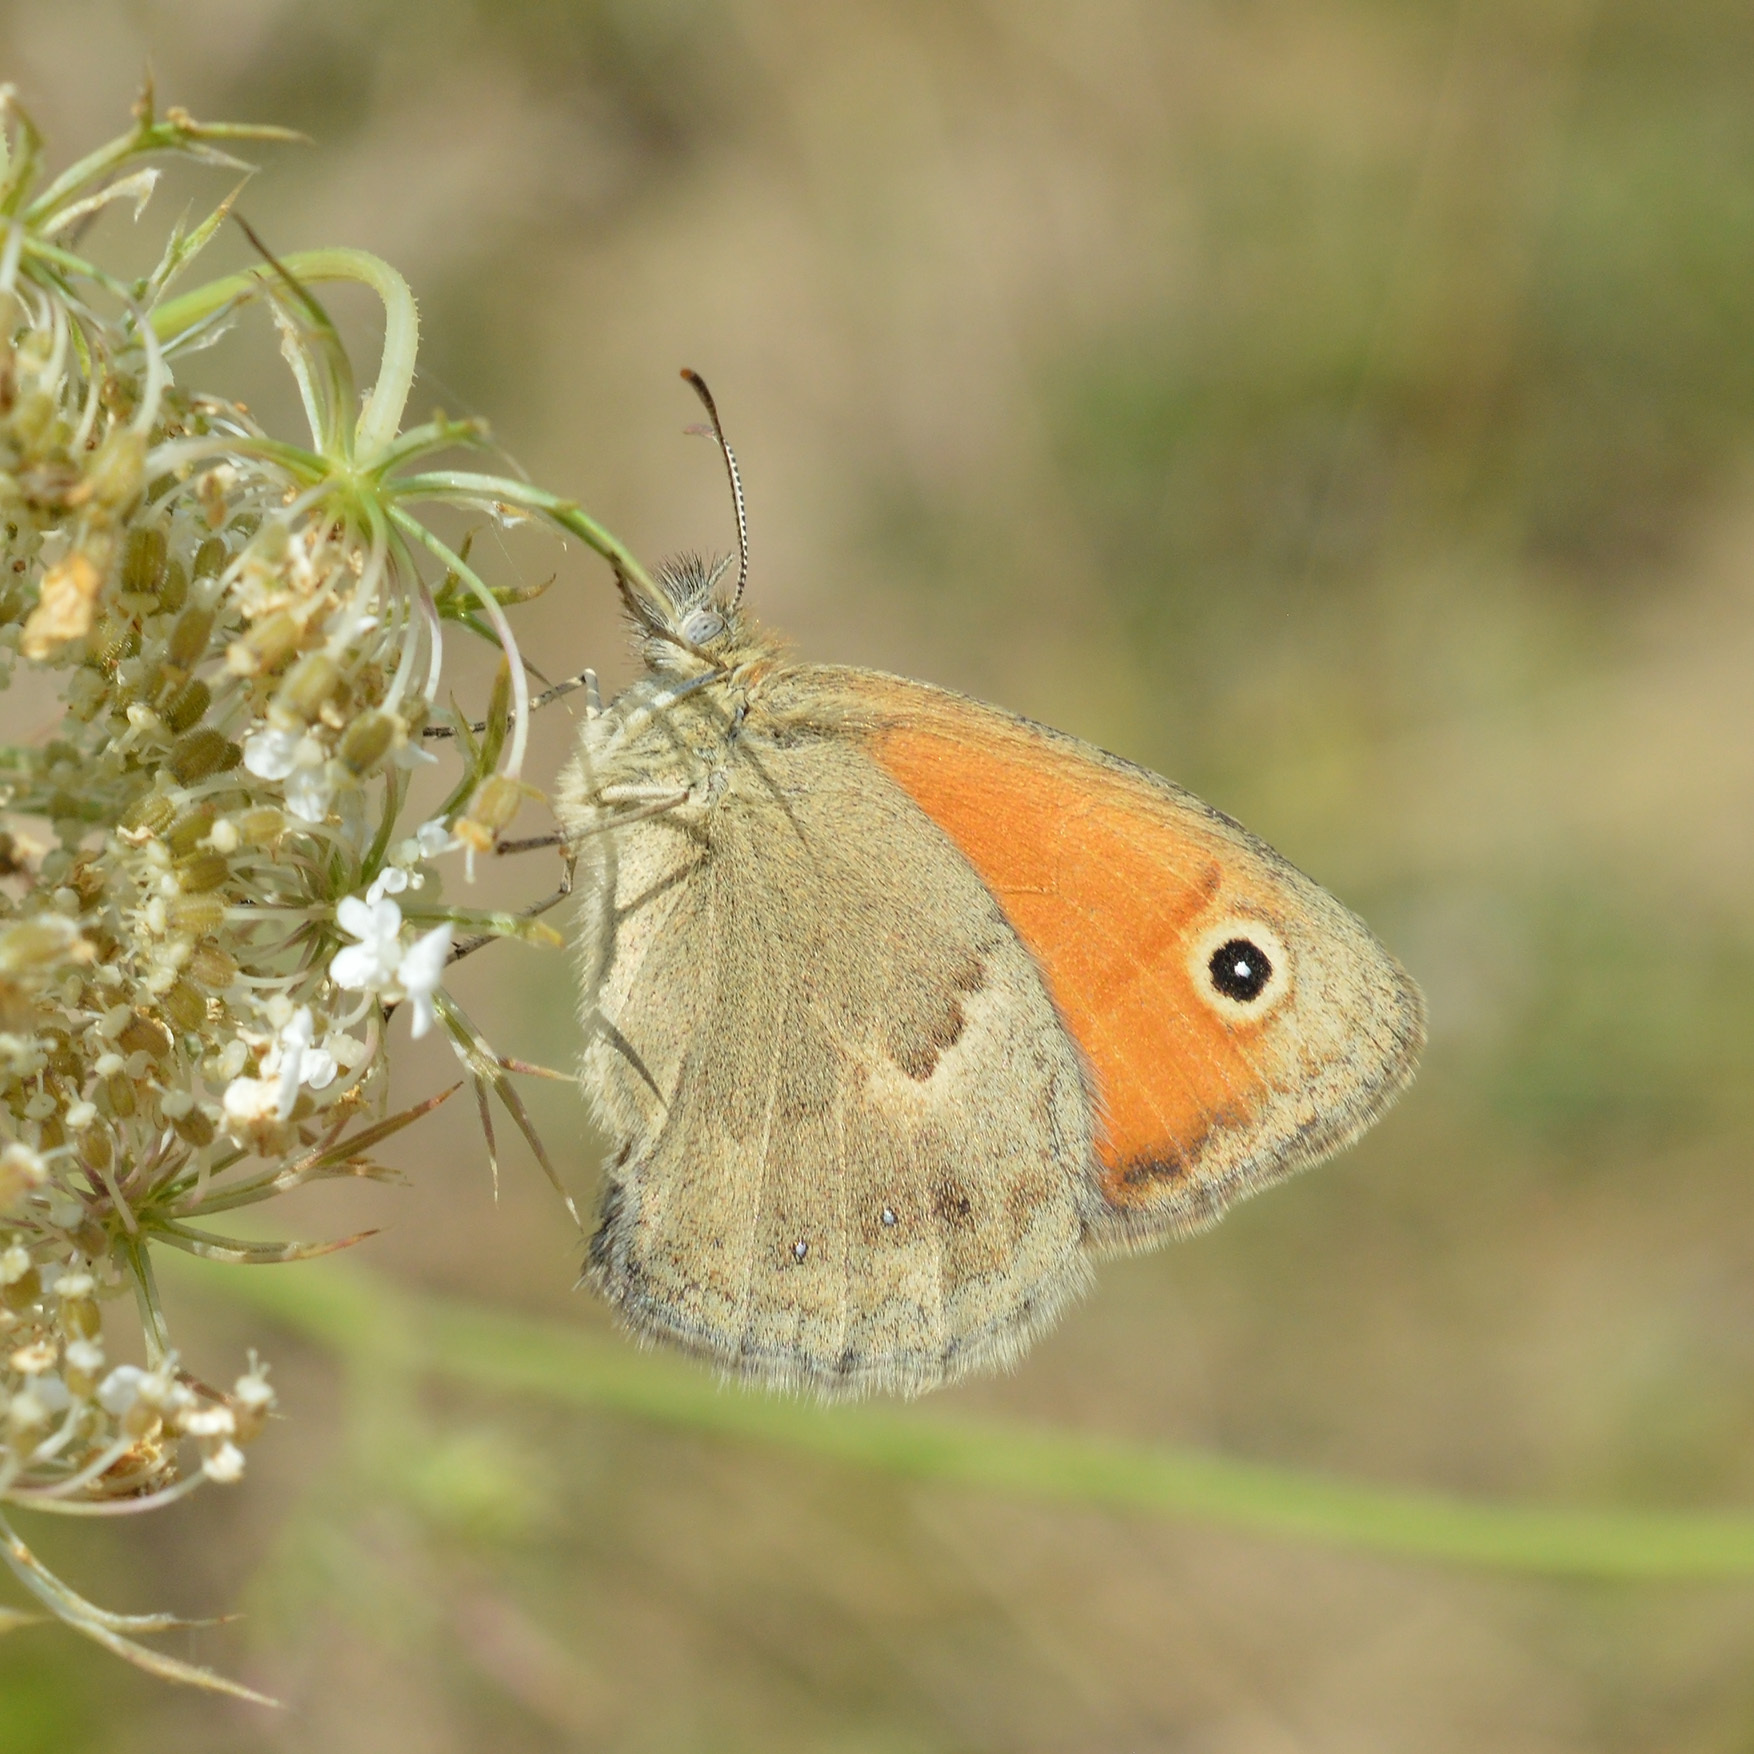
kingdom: Animalia
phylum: Arthropoda
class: Insecta
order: Lepidoptera
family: Nymphalidae
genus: Coenonympha
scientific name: Coenonympha pamphilus
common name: Small heath
